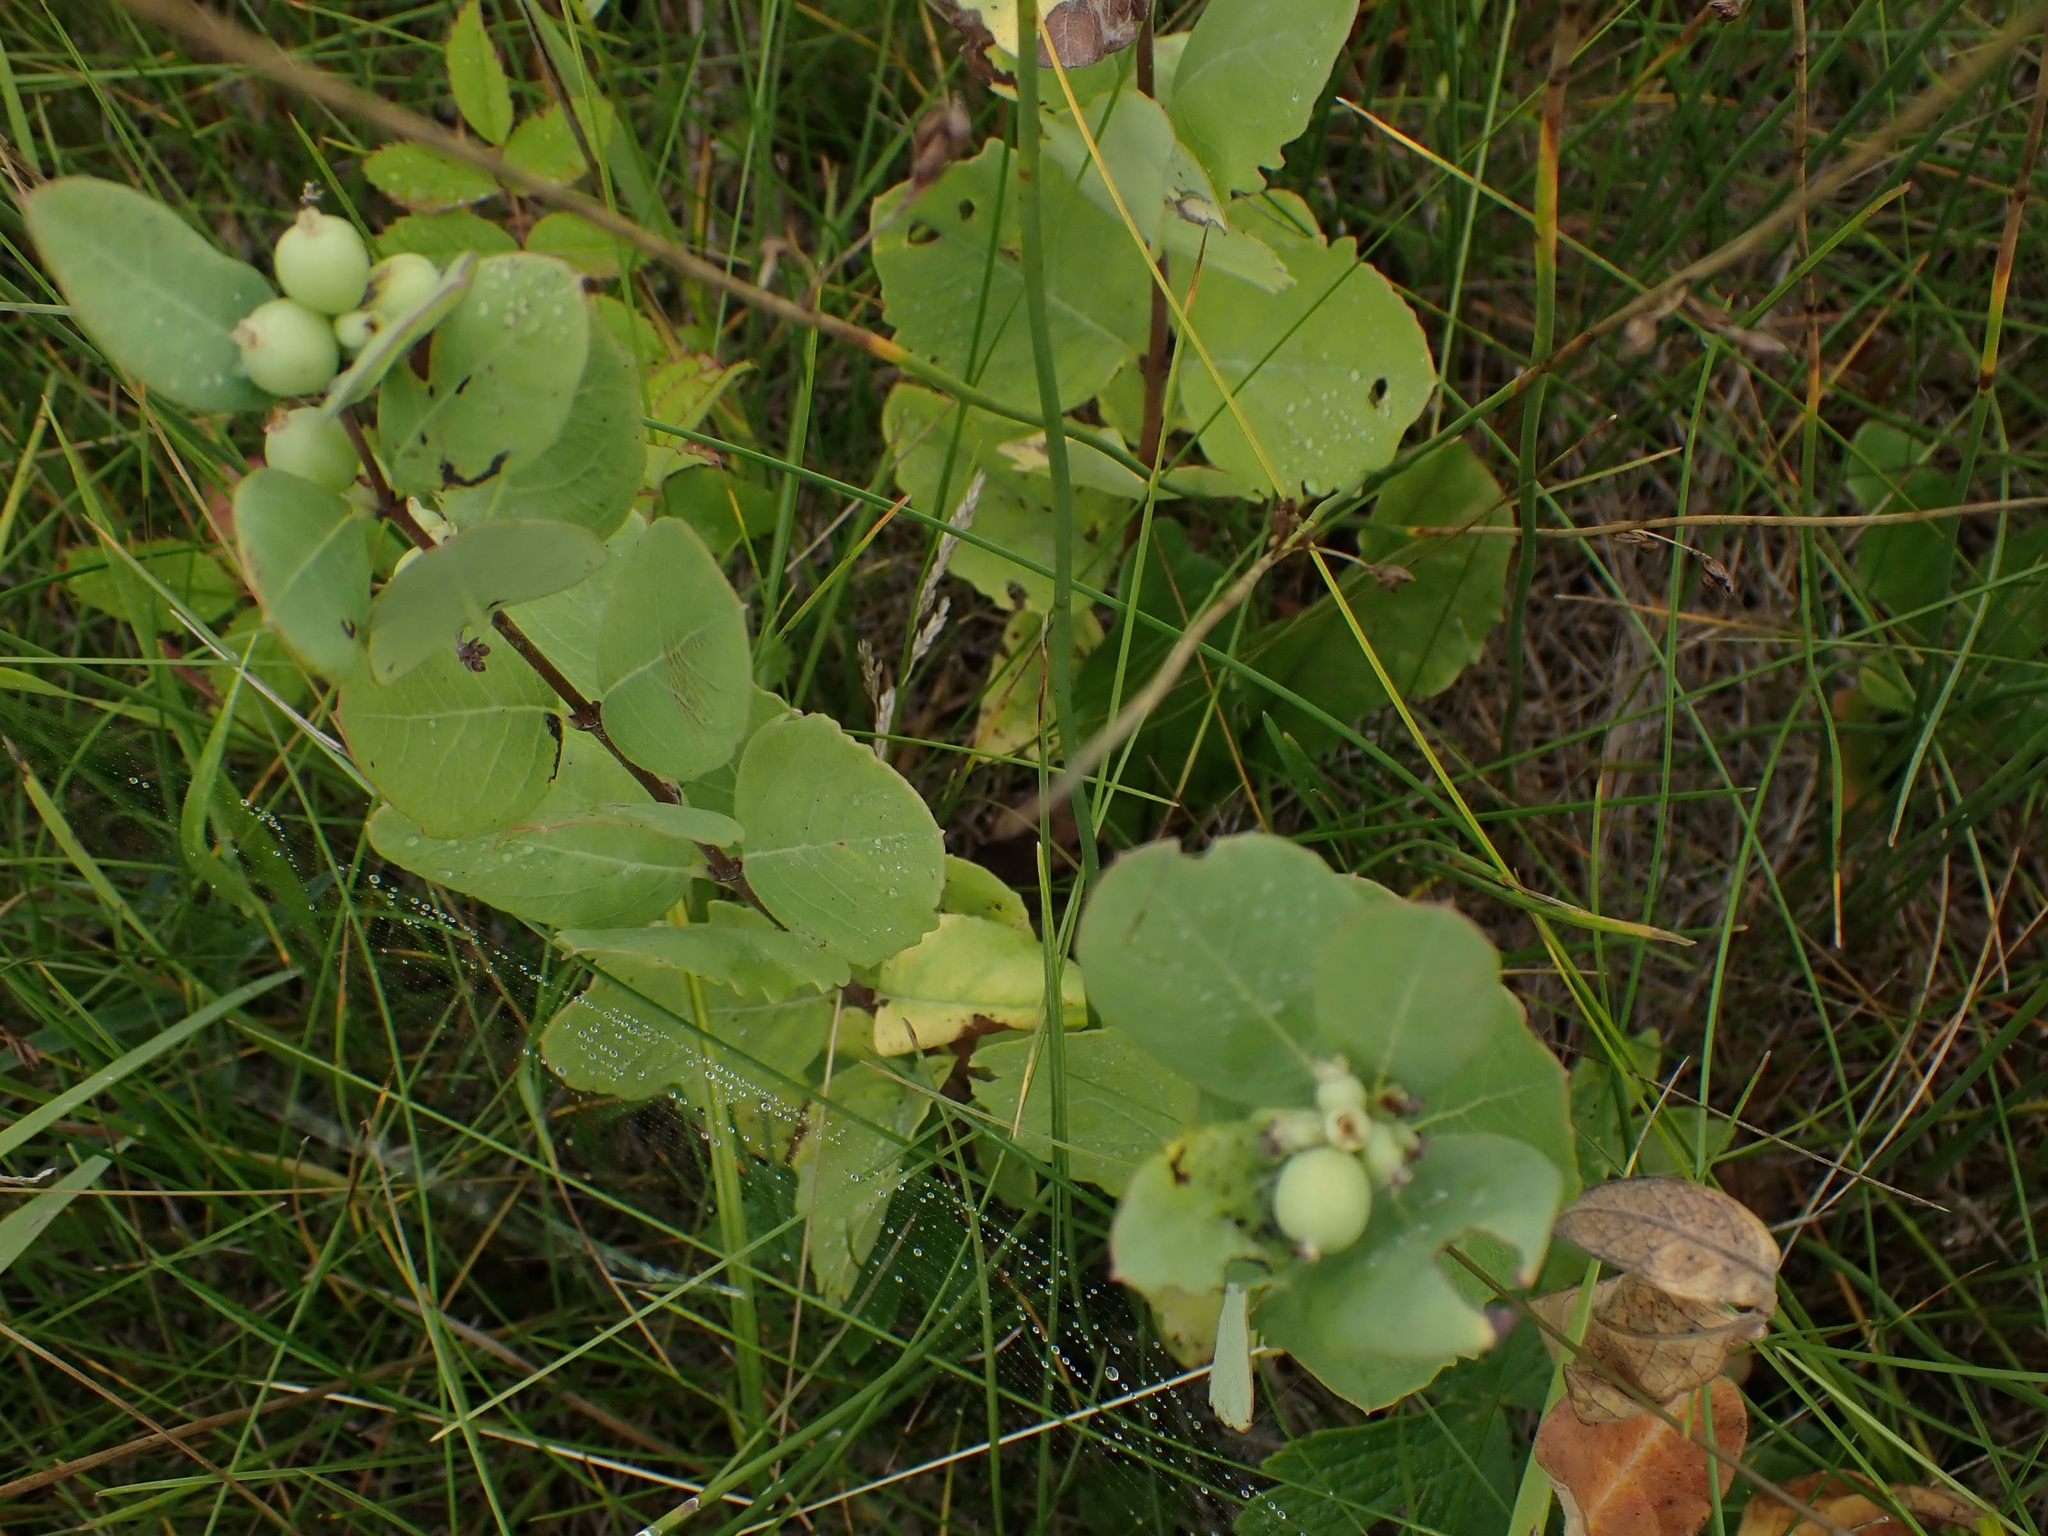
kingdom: Plantae
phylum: Tracheophyta
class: Magnoliopsida
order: Dipsacales
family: Caprifoliaceae
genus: Symphoricarpos
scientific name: Symphoricarpos occidentalis
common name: Wolfberry
